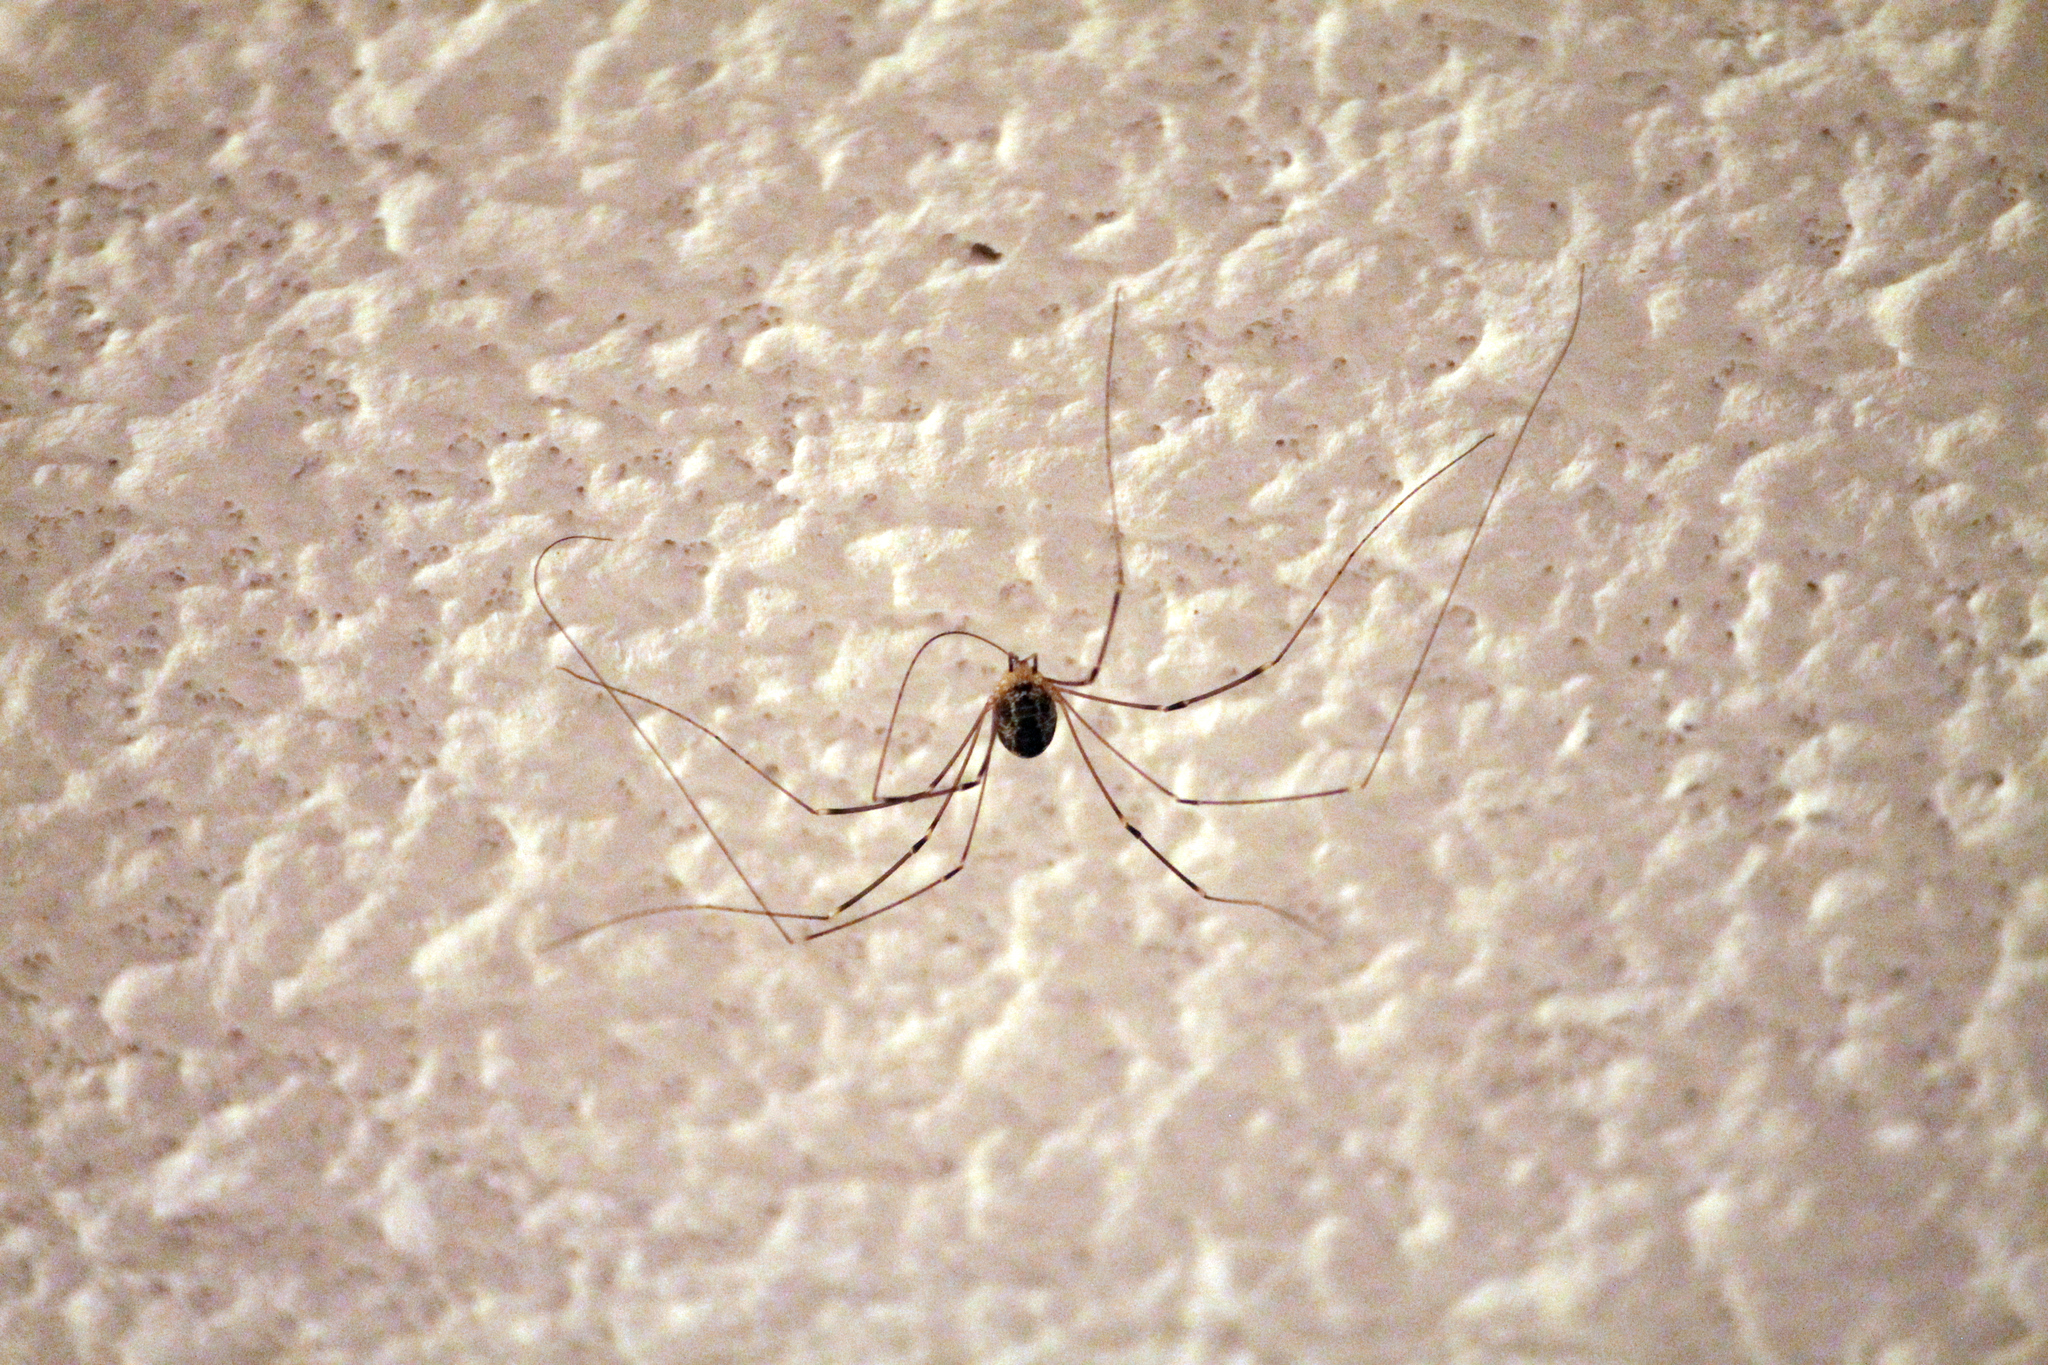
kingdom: Animalia
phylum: Arthropoda
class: Arachnida
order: Opiliones
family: Sclerosomatidae
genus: Leiobunum
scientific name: Leiobunum gracile
